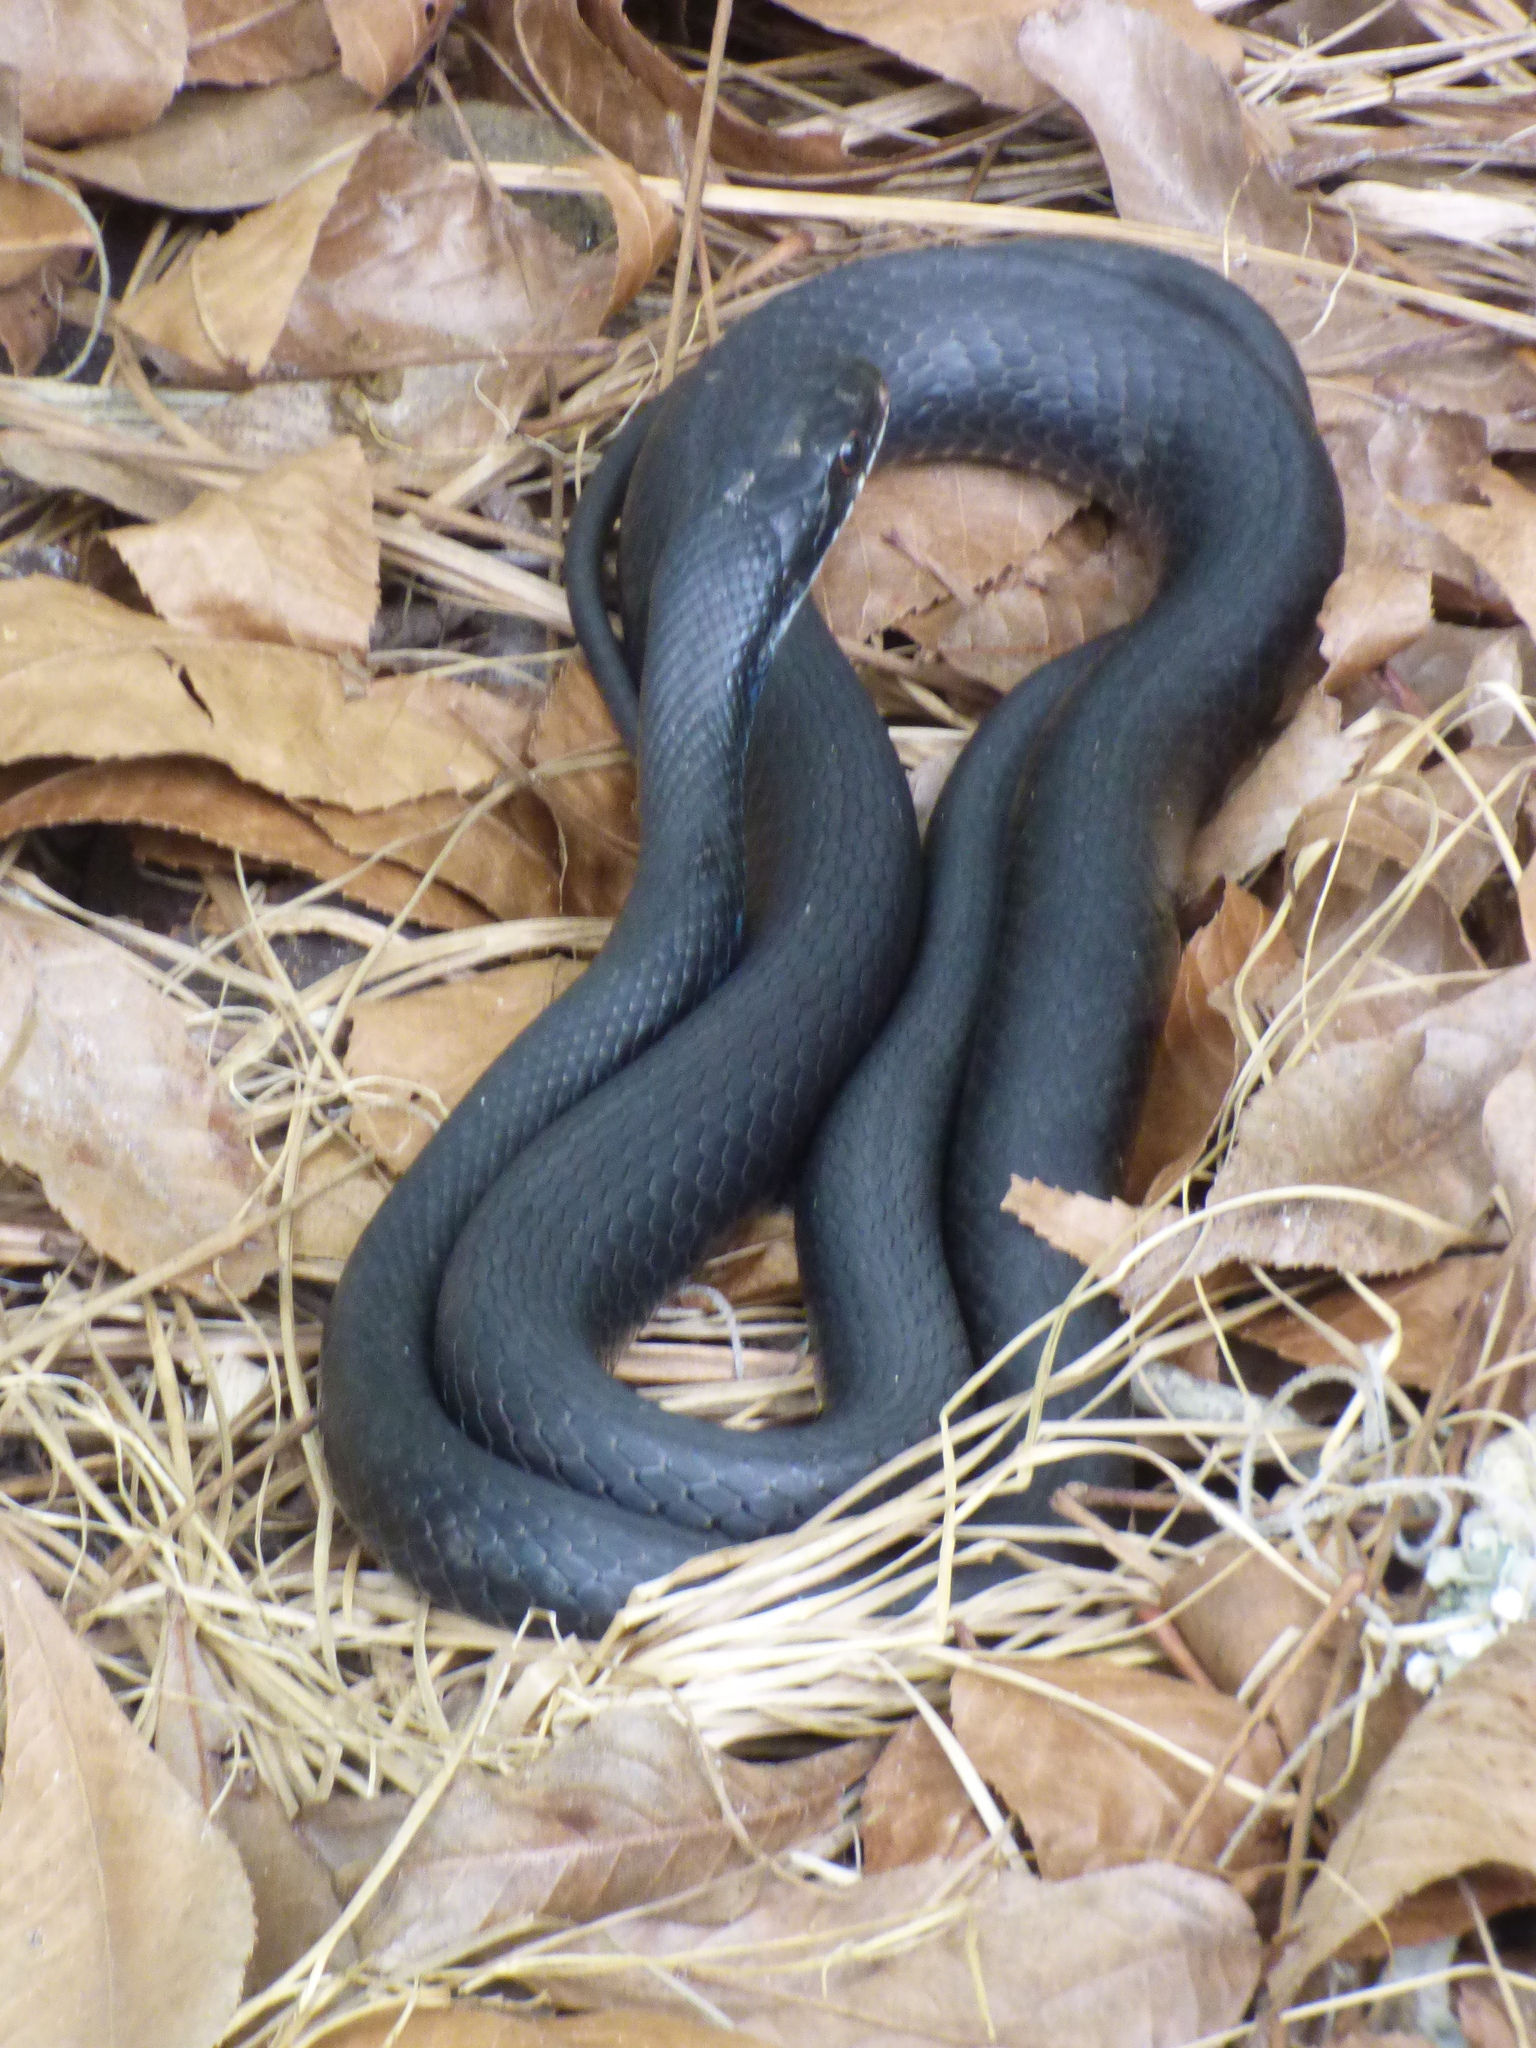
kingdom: Animalia
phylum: Chordata
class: Squamata
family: Colubridae
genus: Coluber
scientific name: Coluber constrictor
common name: Eastern racer
